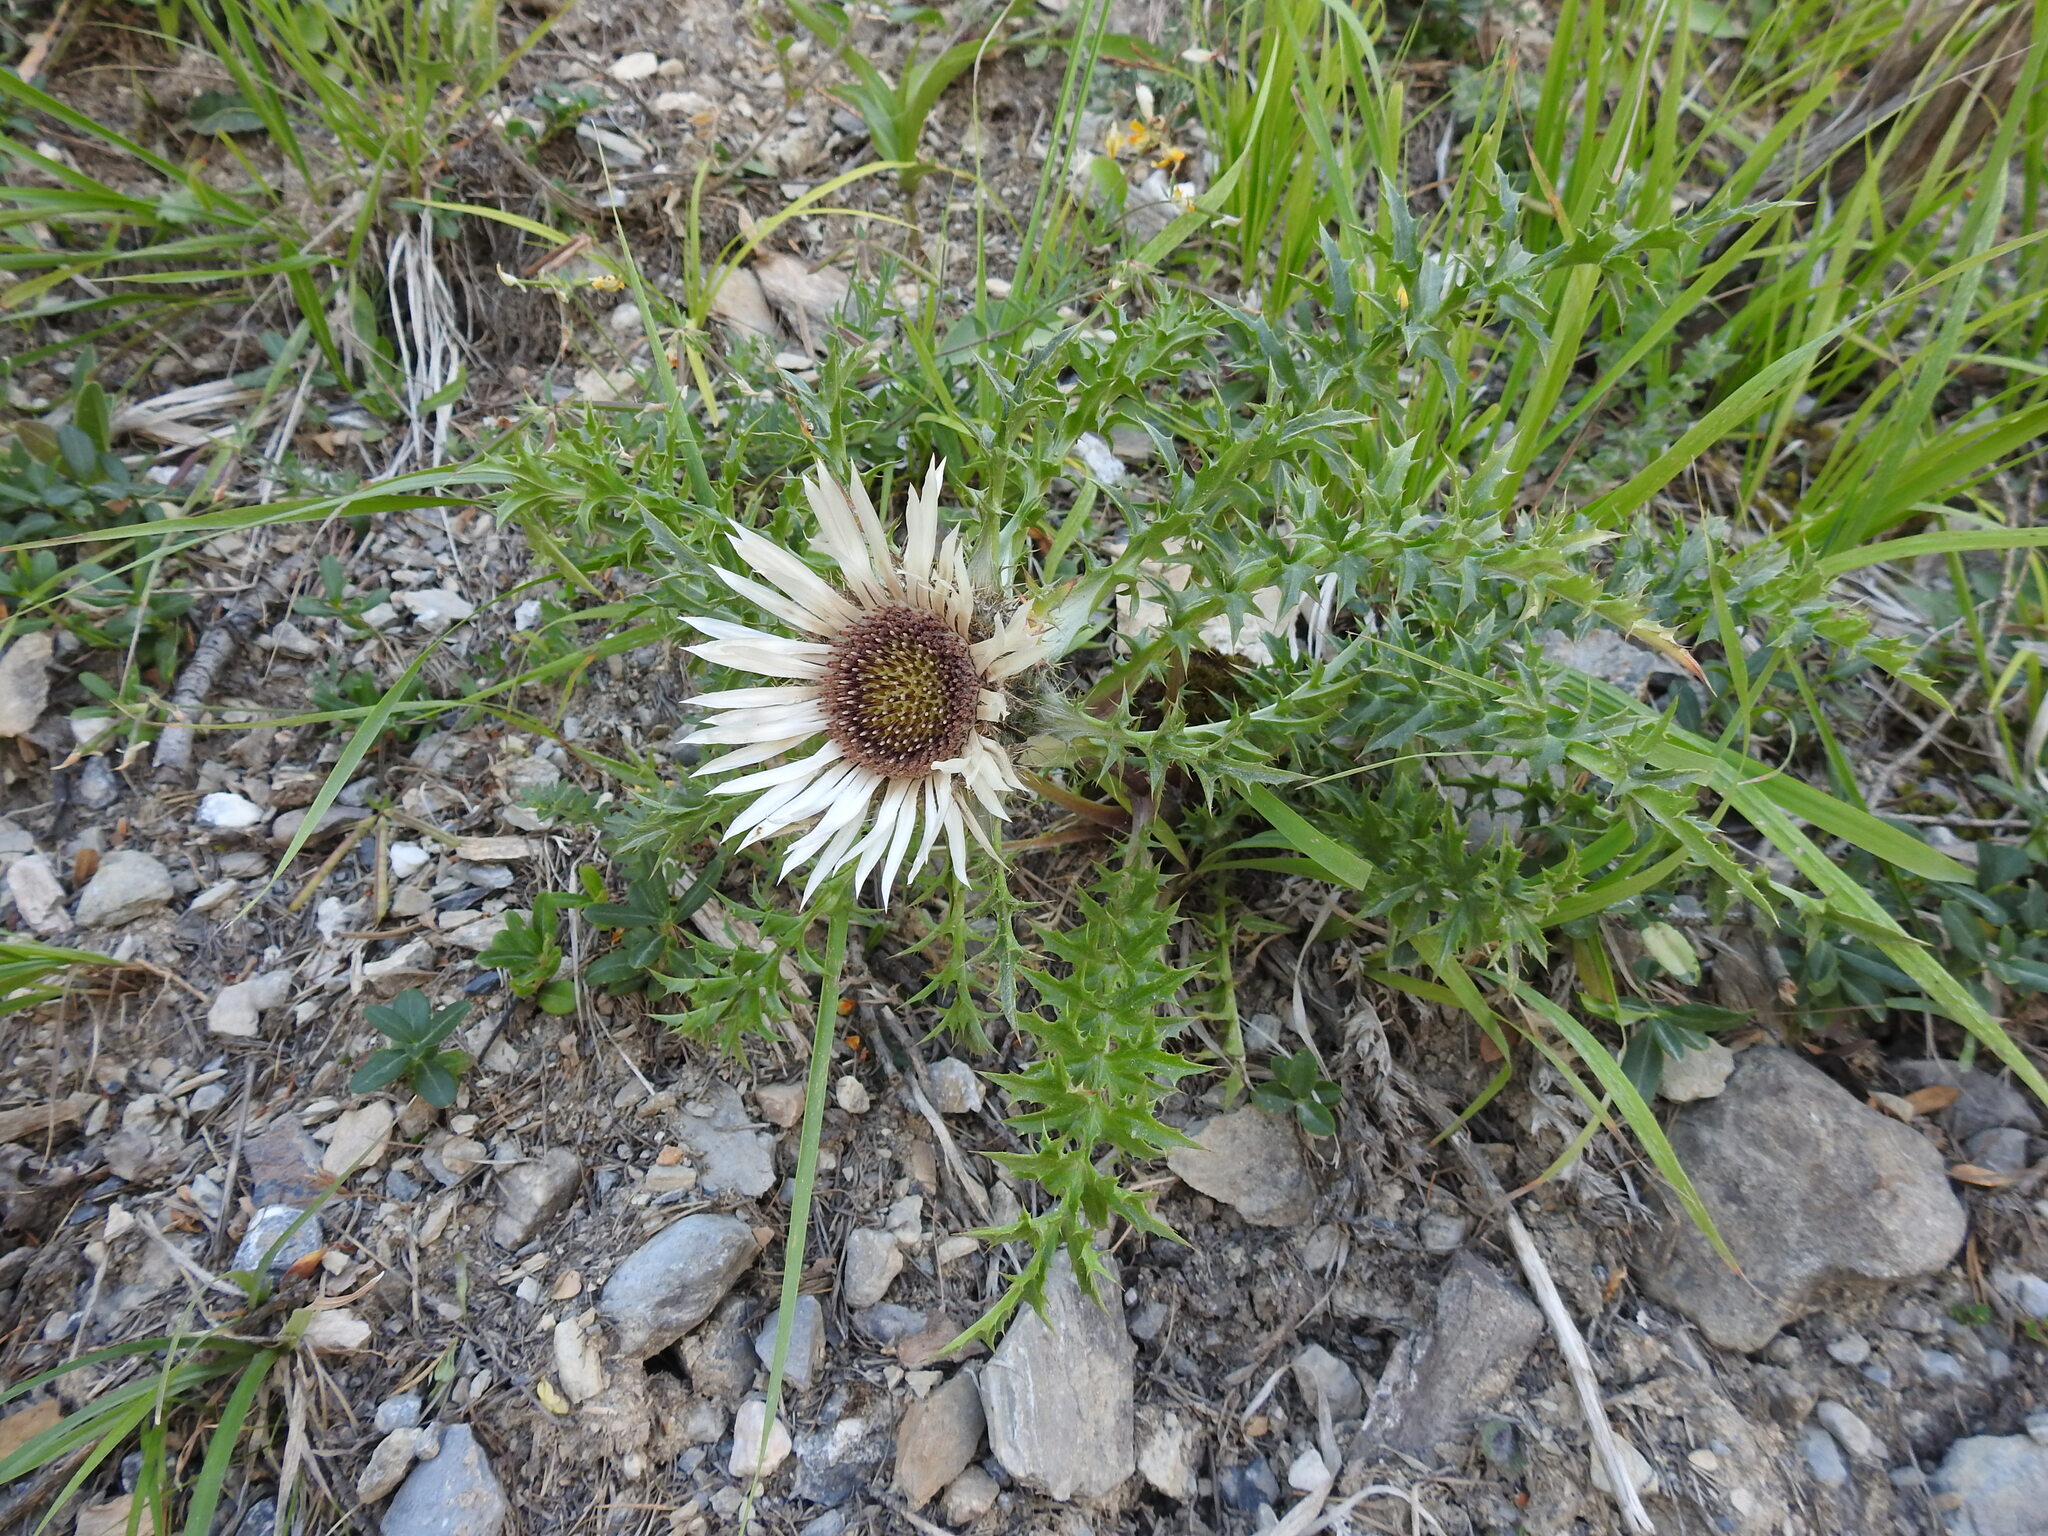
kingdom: Plantae
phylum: Tracheophyta
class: Magnoliopsida
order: Asterales
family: Asteraceae
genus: Carlina
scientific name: Carlina acaulis
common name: Stemless carline thistle
